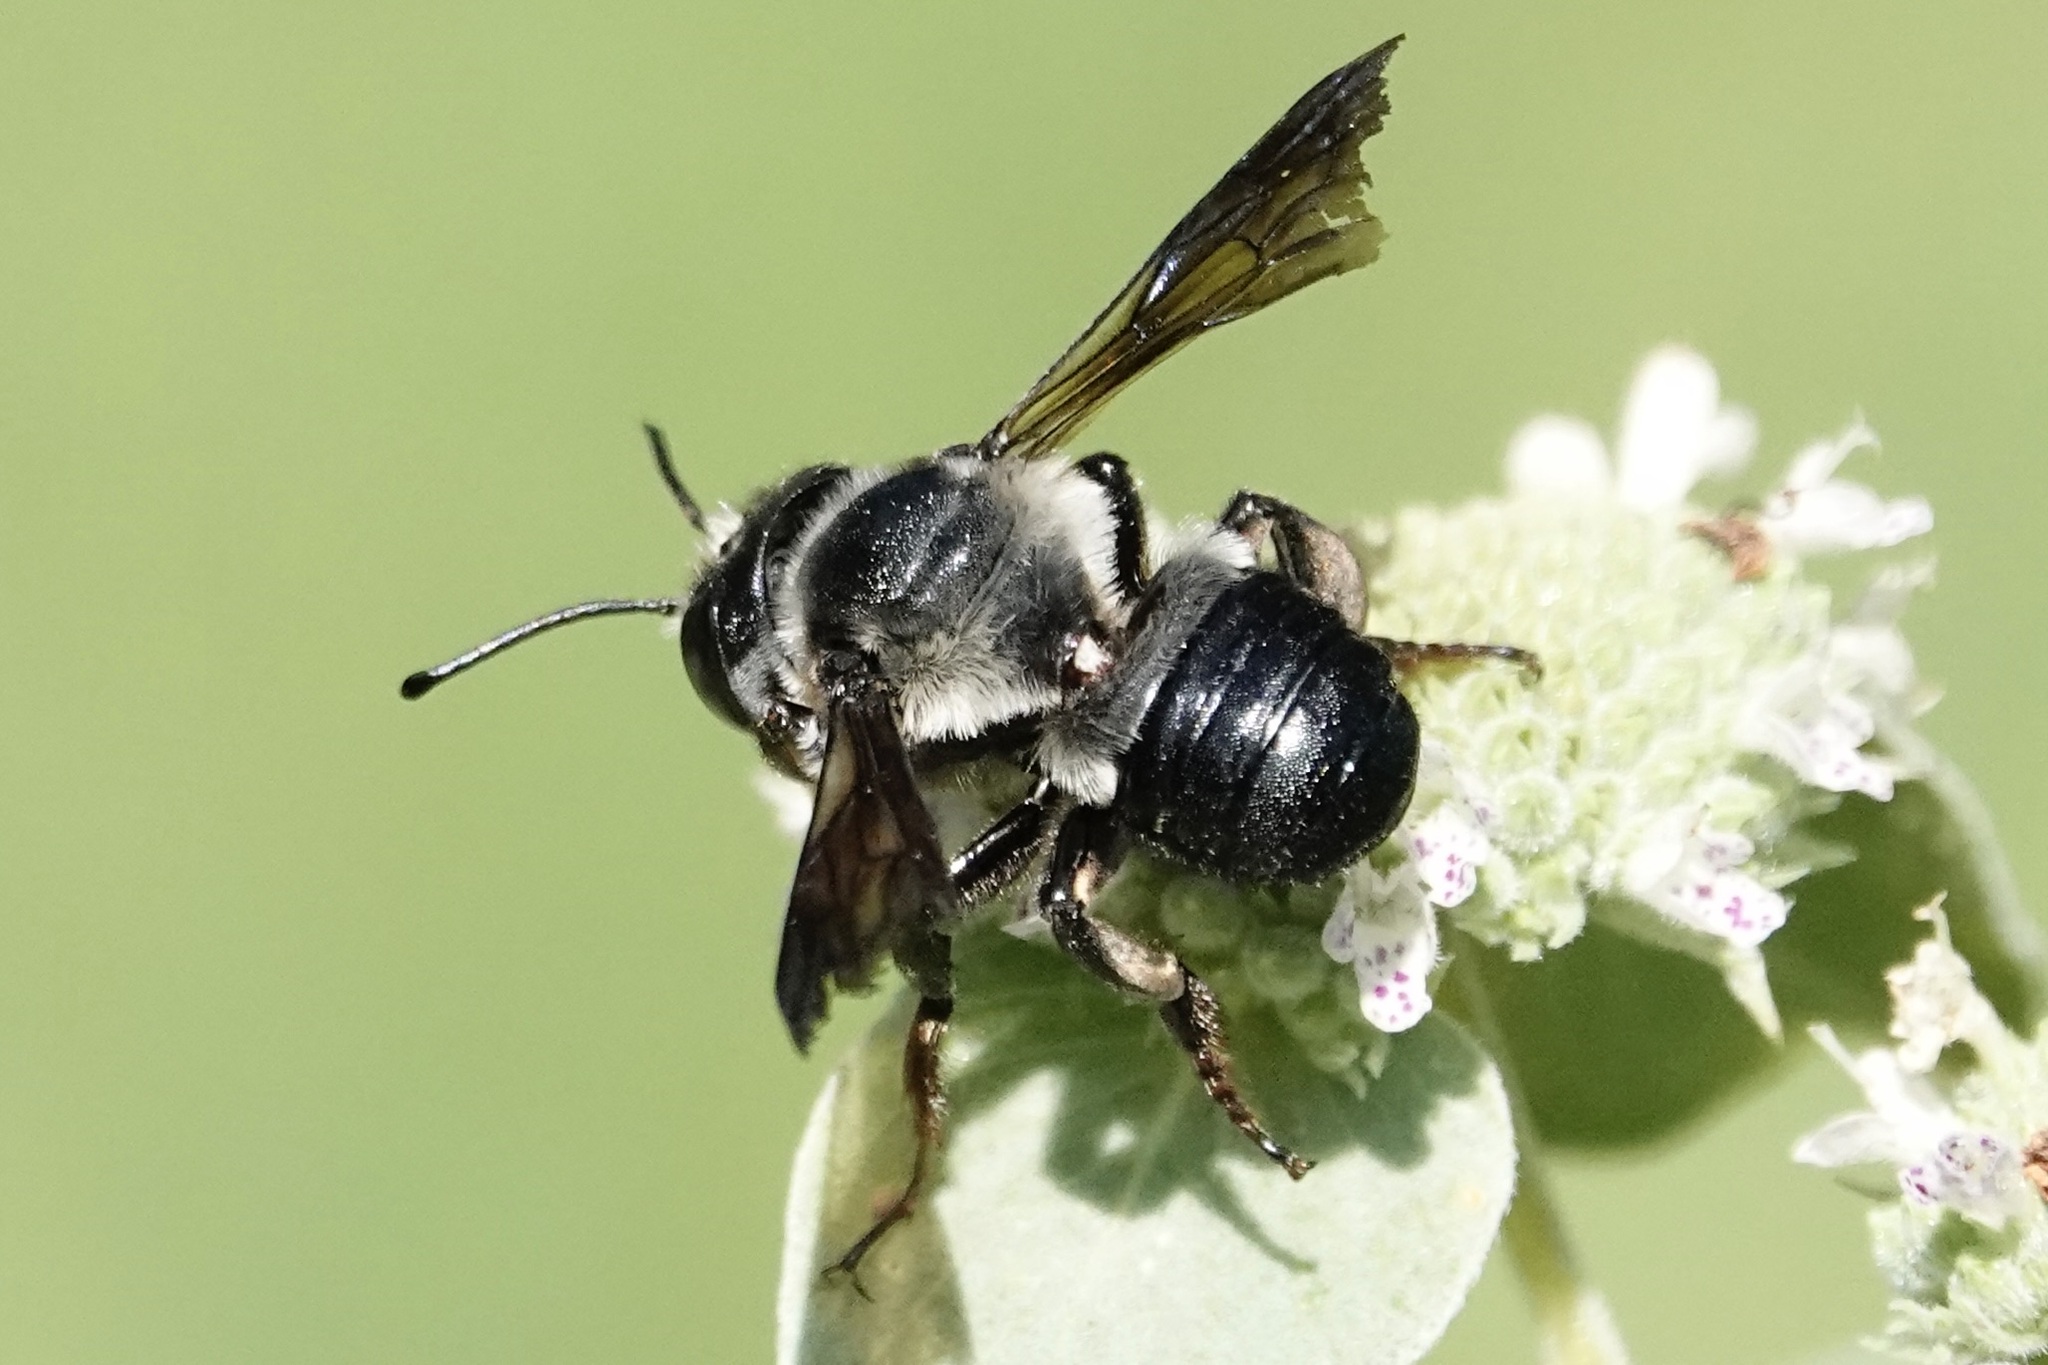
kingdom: Animalia
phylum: Arthropoda
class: Insecta
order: Hymenoptera
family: Megachilidae
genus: Megachile
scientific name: Megachile xylocopoides
